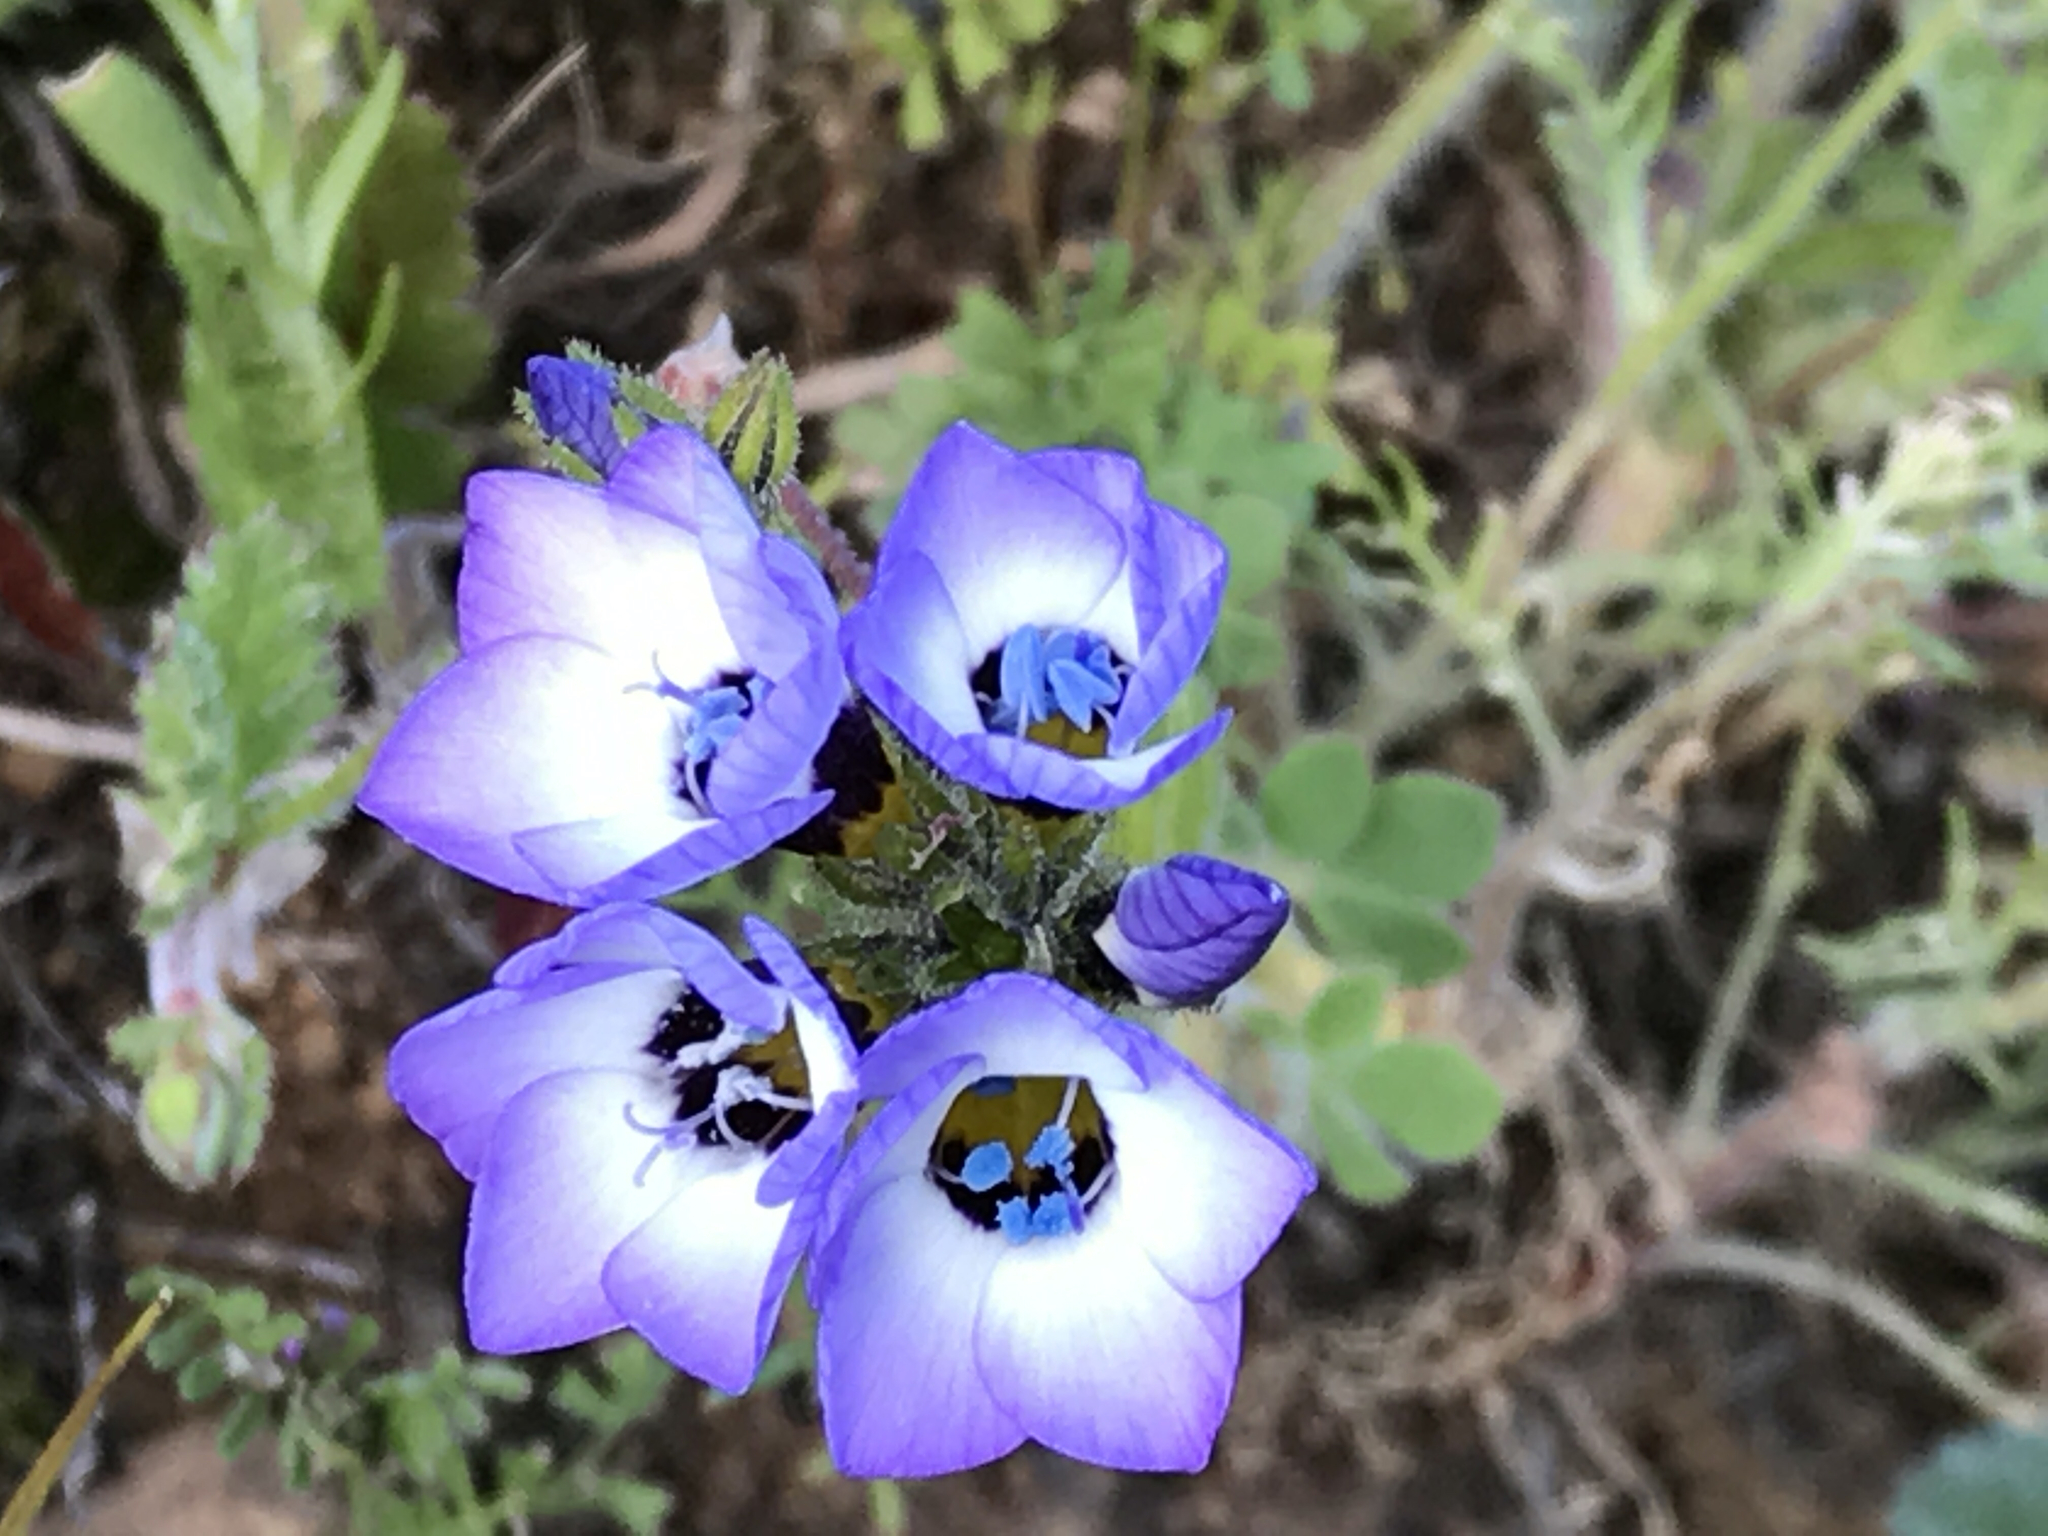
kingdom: Plantae
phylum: Tracheophyta
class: Magnoliopsida
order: Ericales
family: Polemoniaceae
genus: Gilia
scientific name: Gilia tricolor
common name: Bird's-eyes
